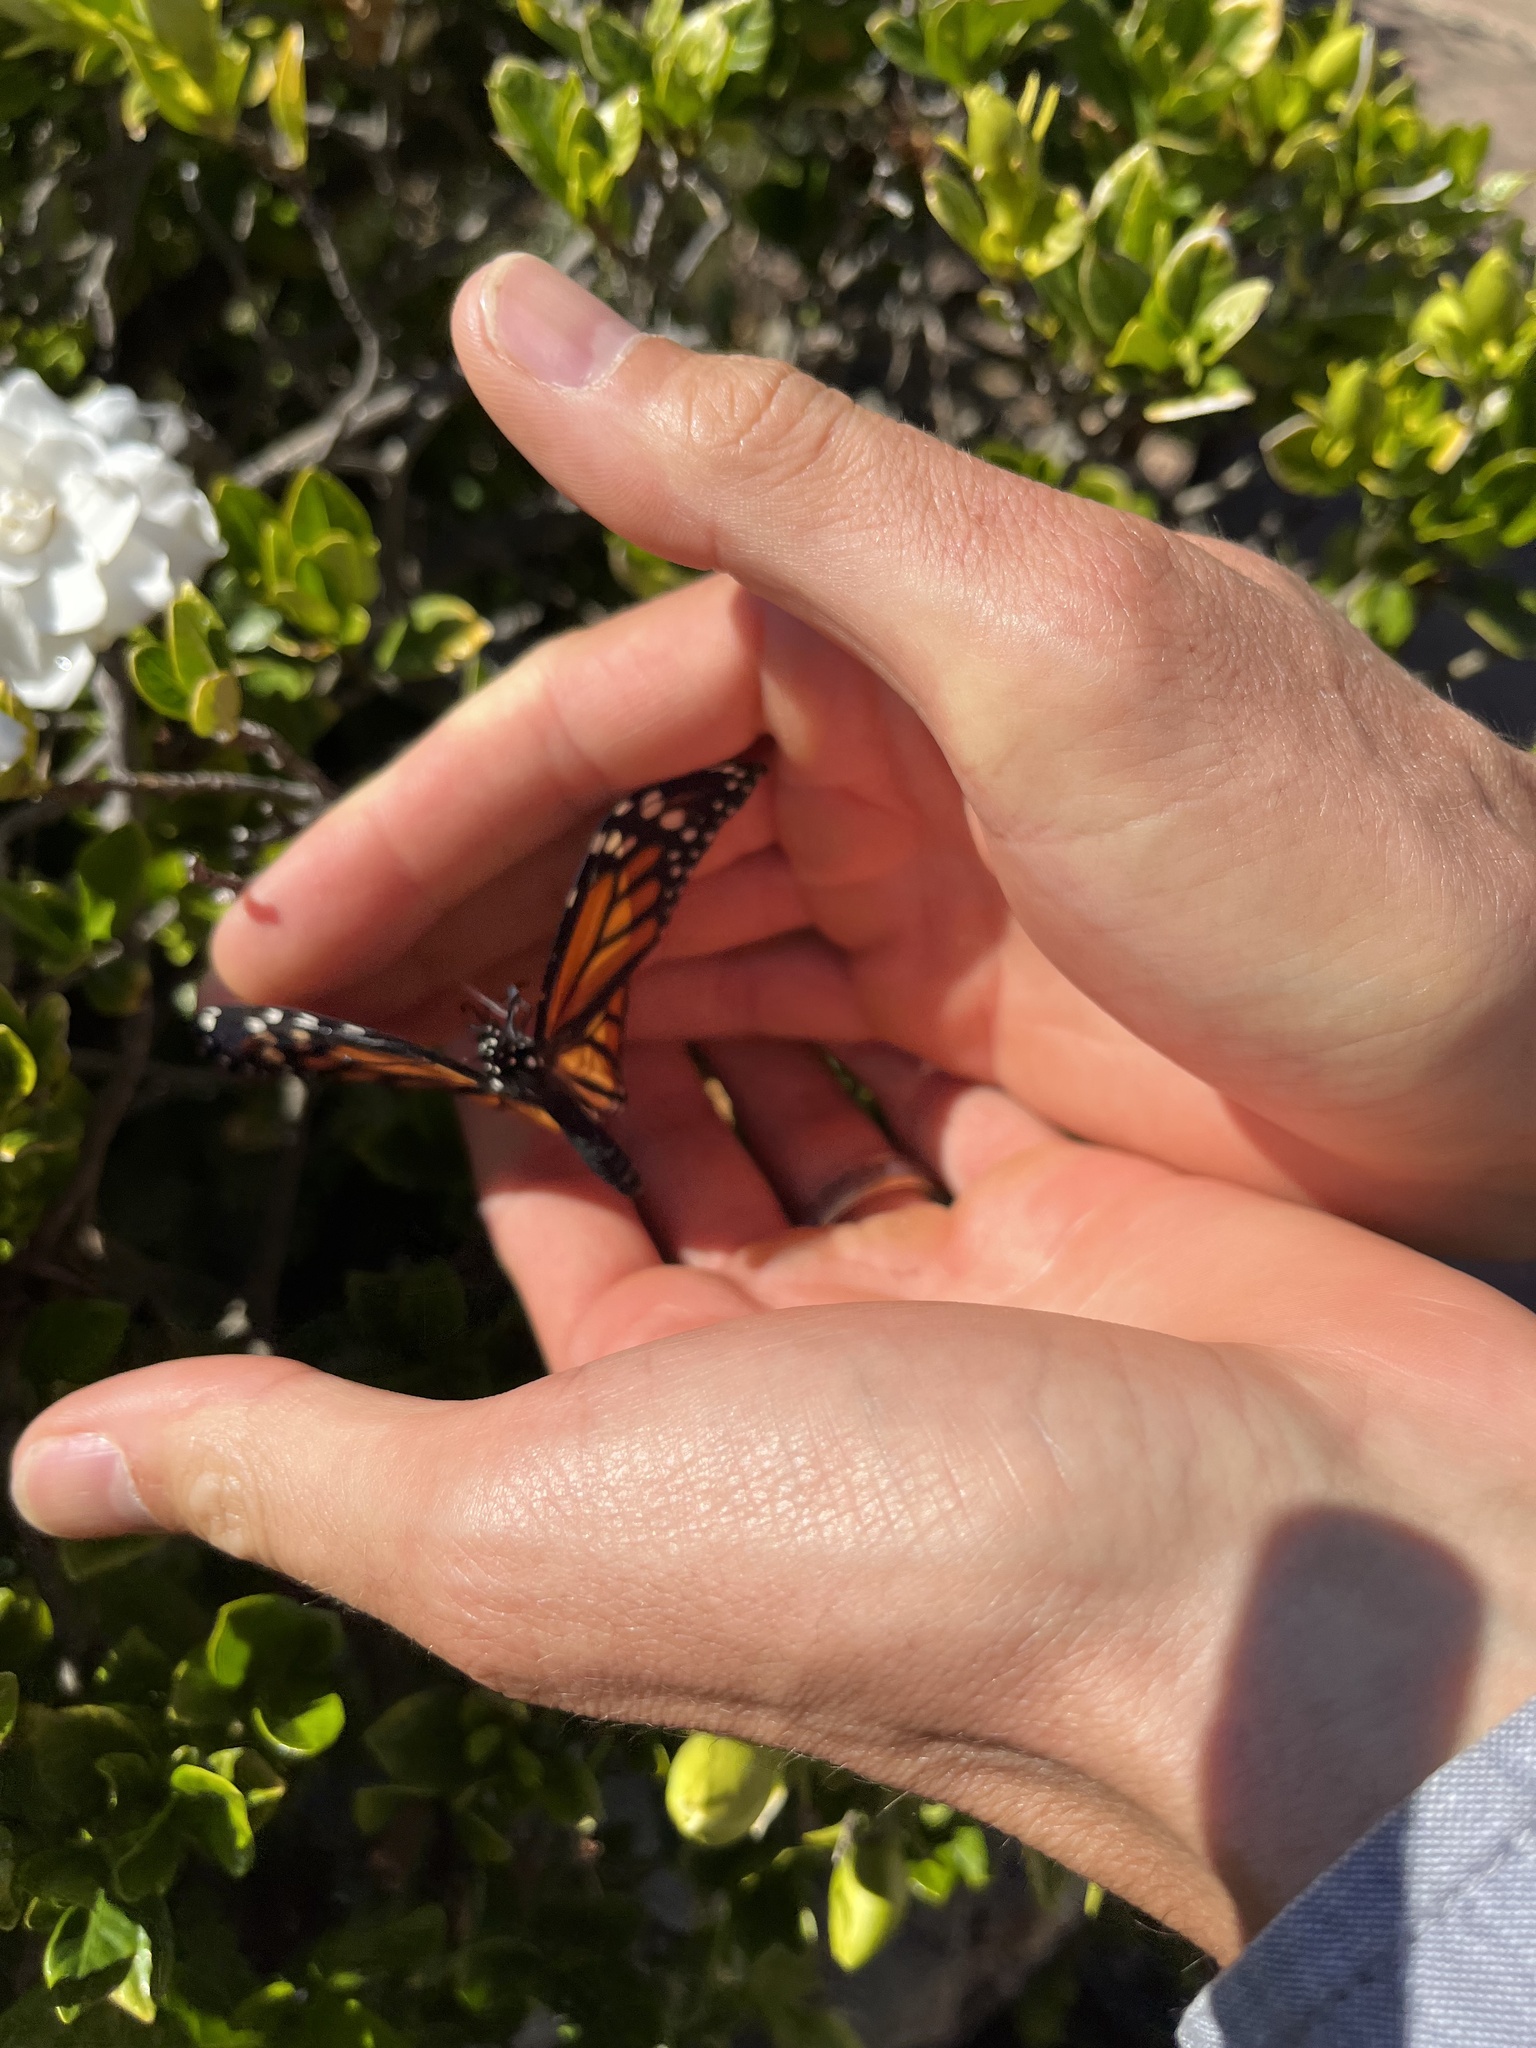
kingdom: Animalia
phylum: Arthropoda
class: Insecta
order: Lepidoptera
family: Nymphalidae
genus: Danaus
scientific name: Danaus plexippus
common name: Monarch
